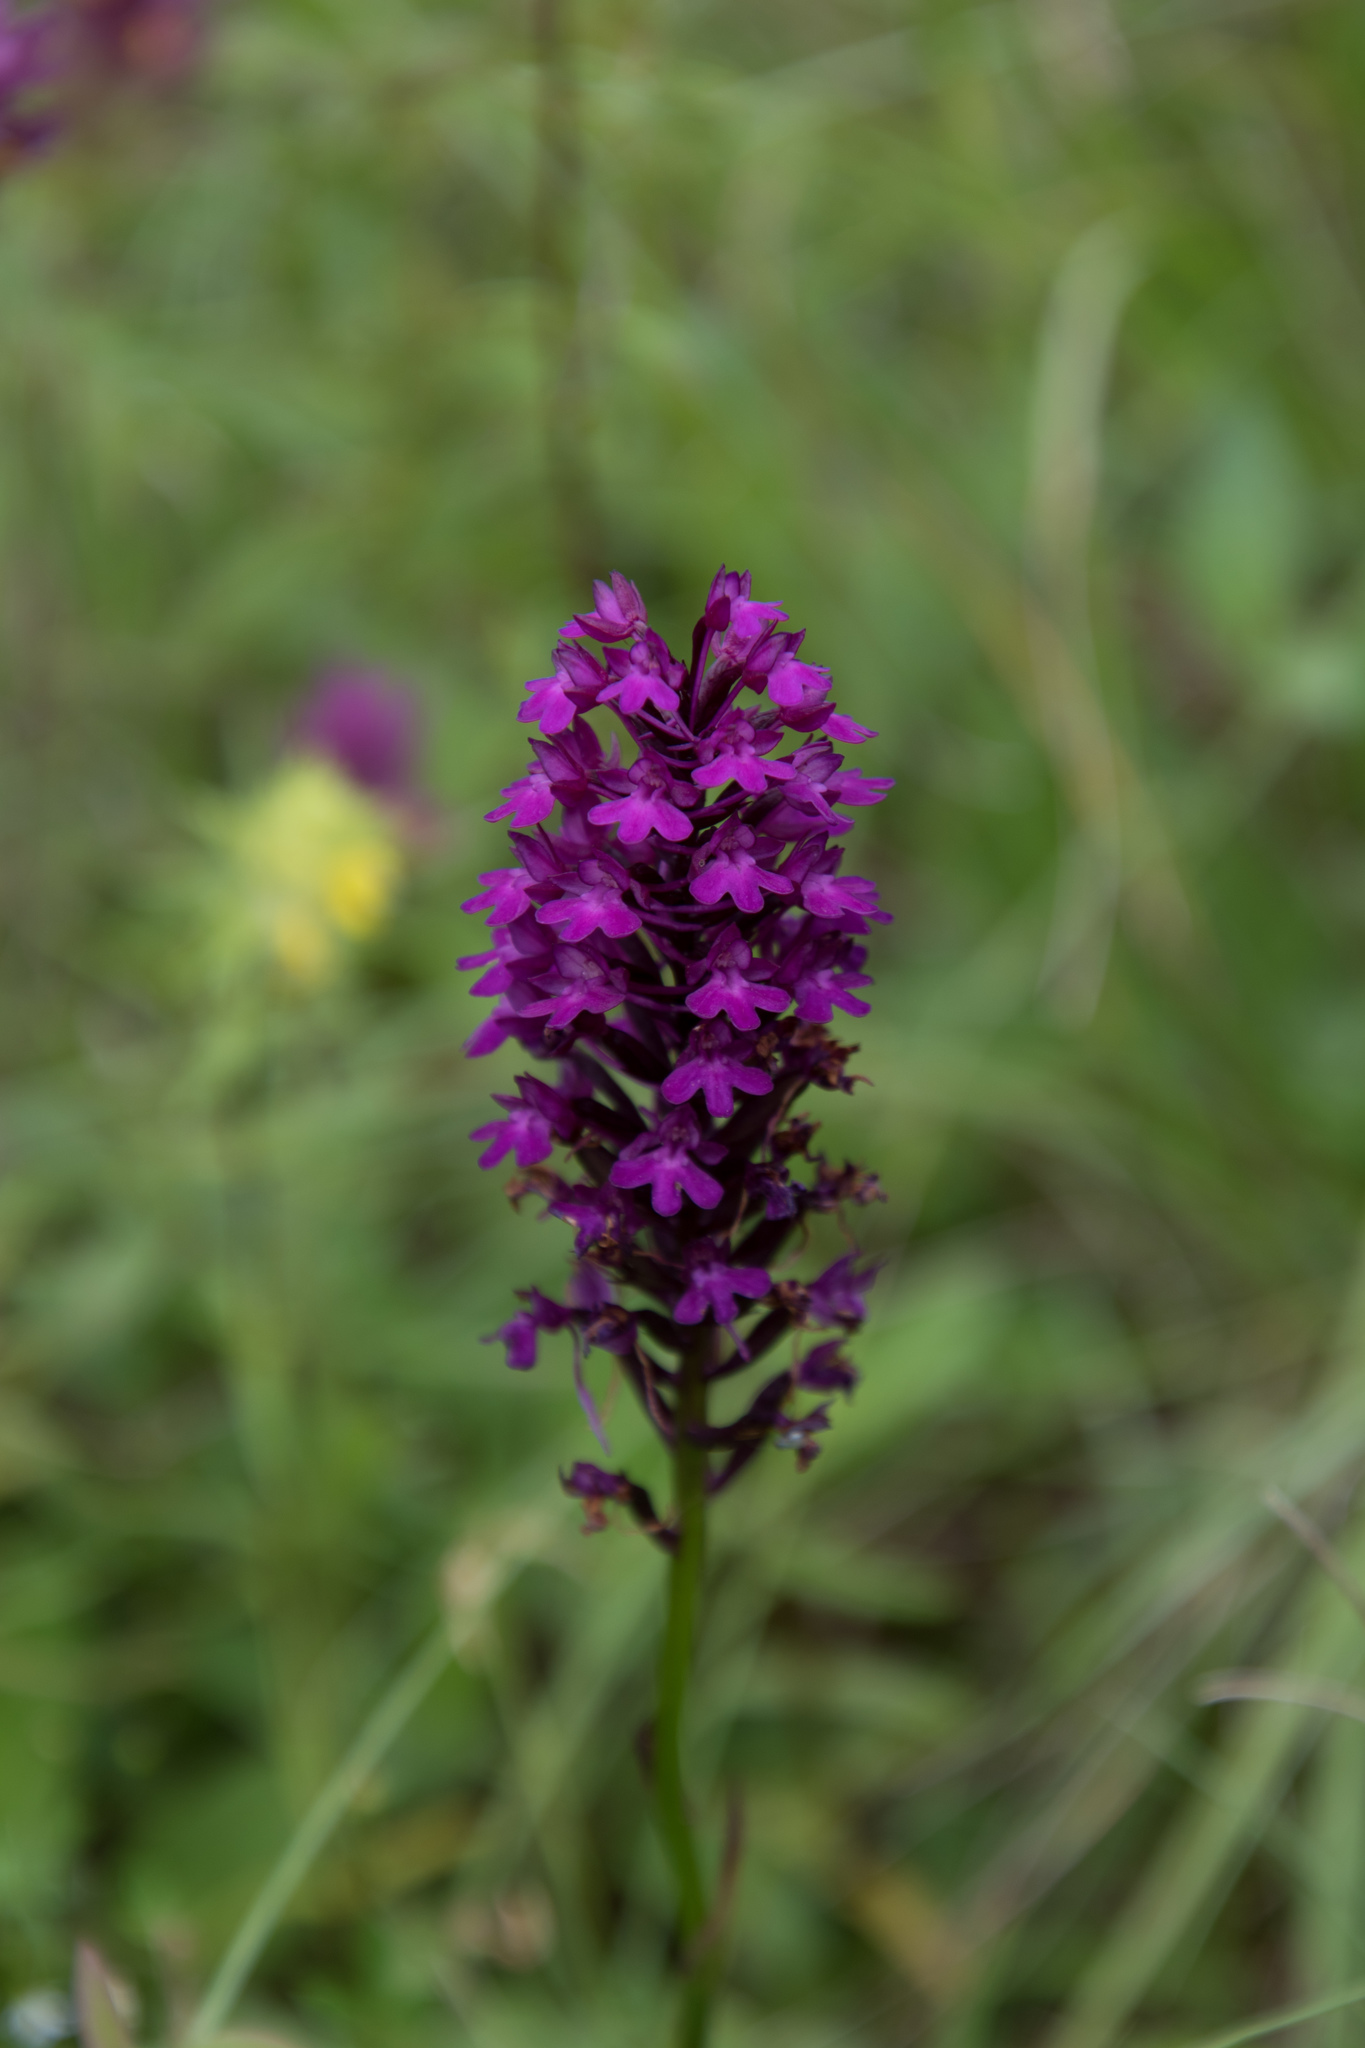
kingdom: Plantae
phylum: Tracheophyta
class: Liliopsida
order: Asparagales
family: Orchidaceae
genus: Anacamptis
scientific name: Anacamptis pyramidalis
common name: Pyramidal orchid
